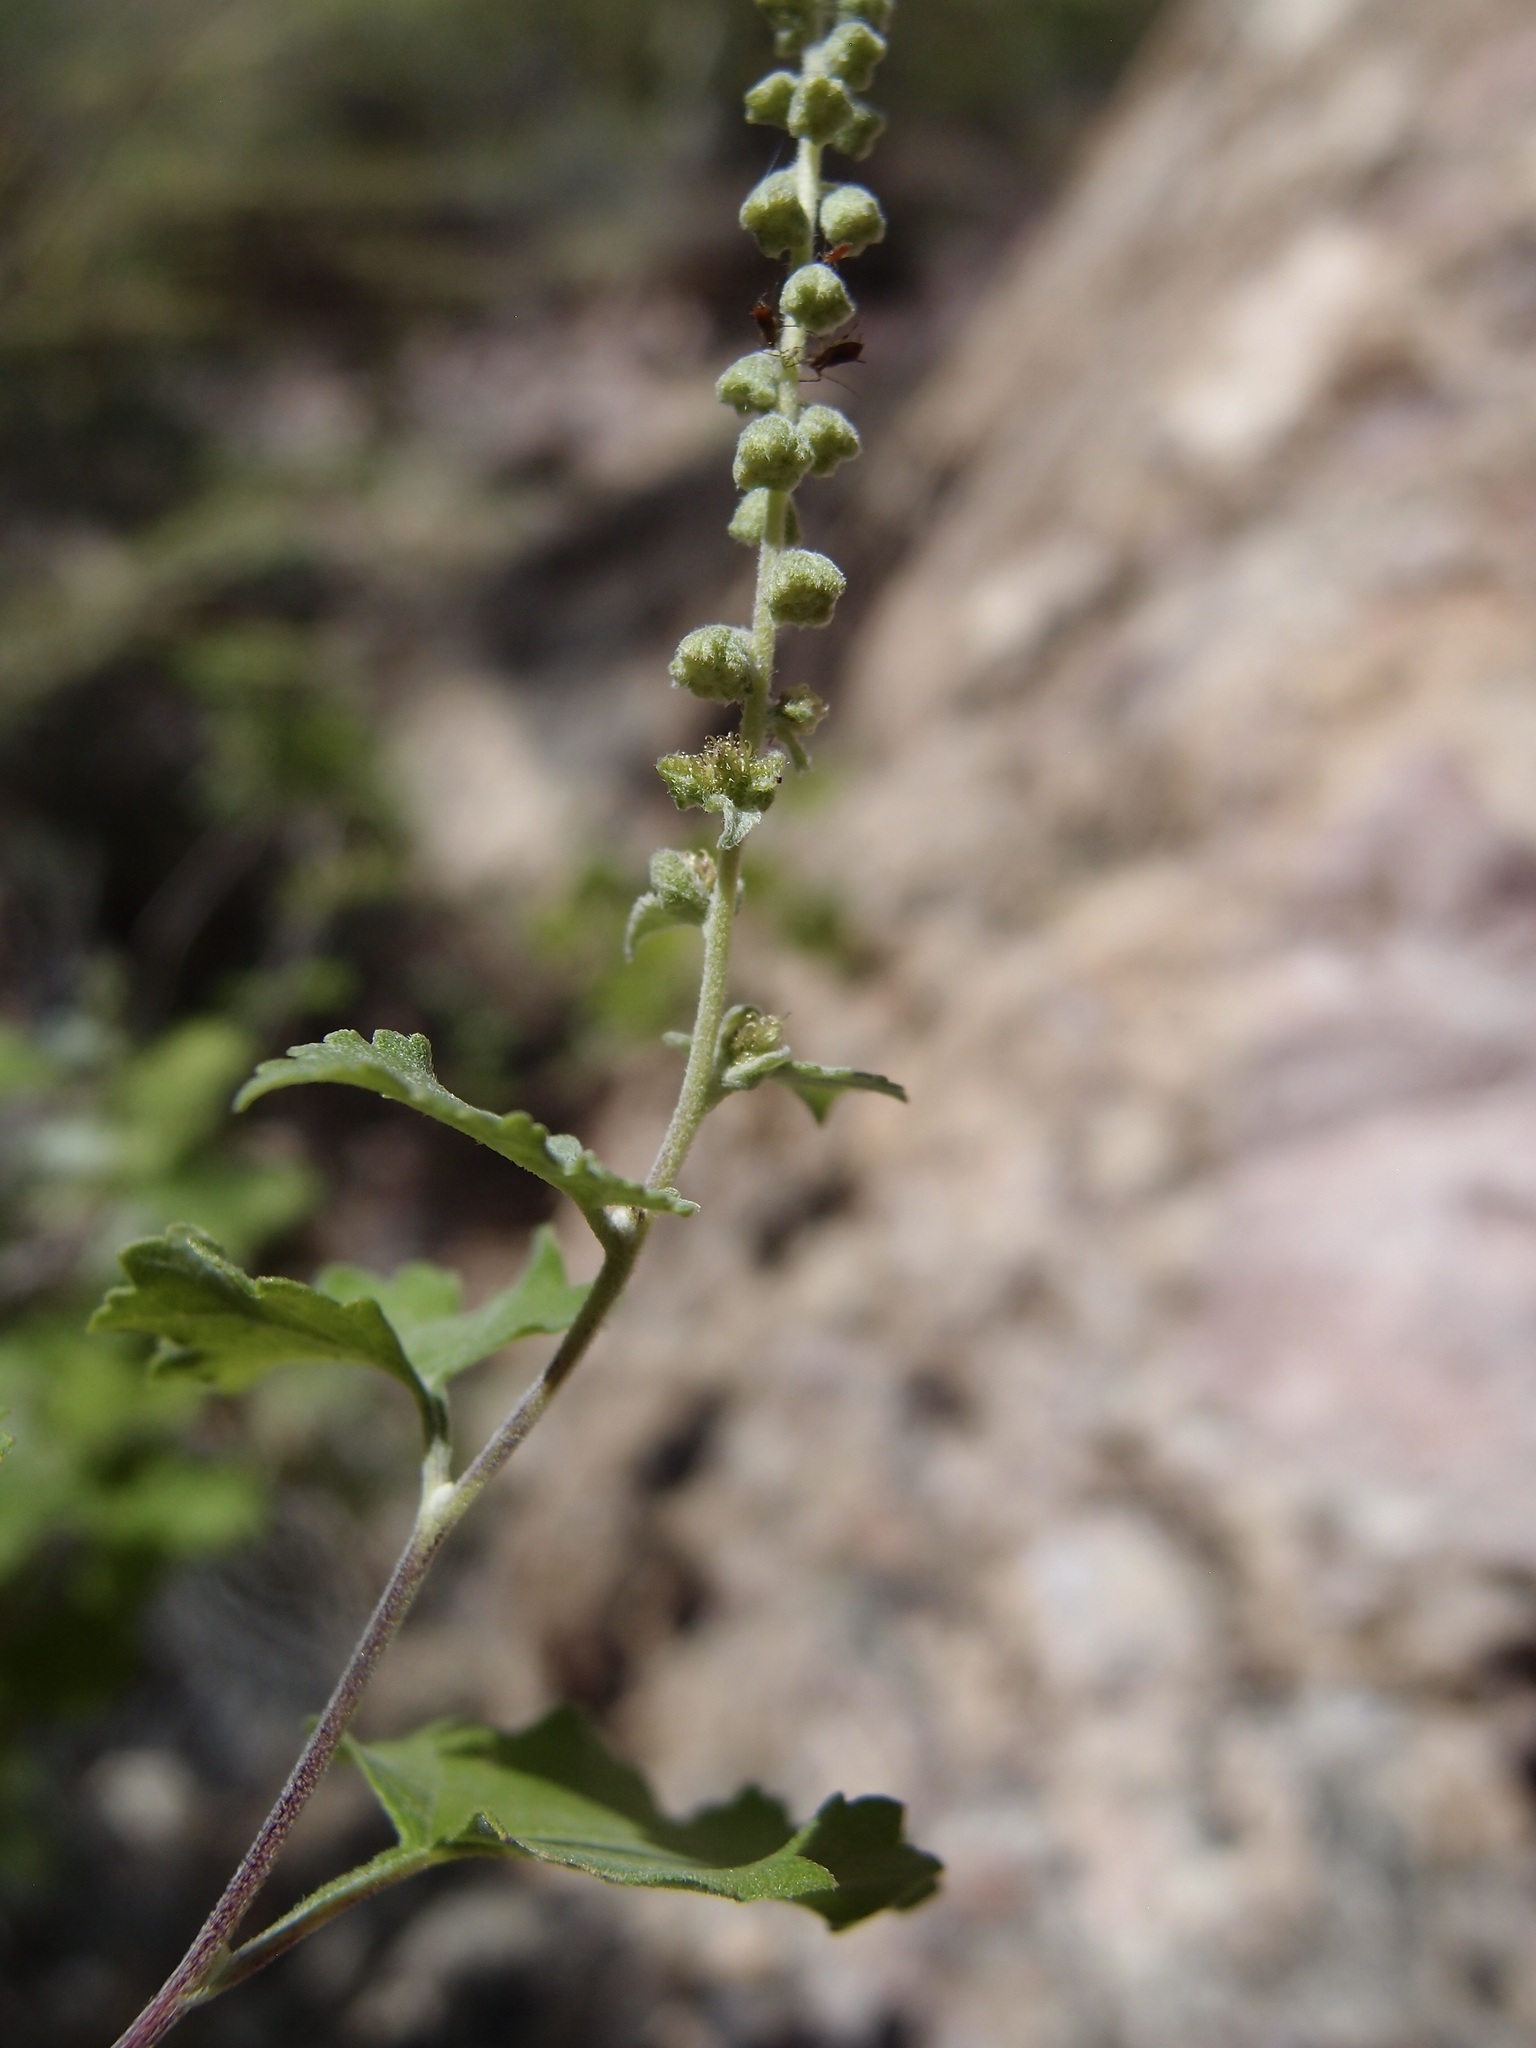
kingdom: Plantae
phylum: Tracheophyta
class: Magnoliopsida
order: Asterales
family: Asteraceae
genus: Ambrosia
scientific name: Ambrosia cordifolia
